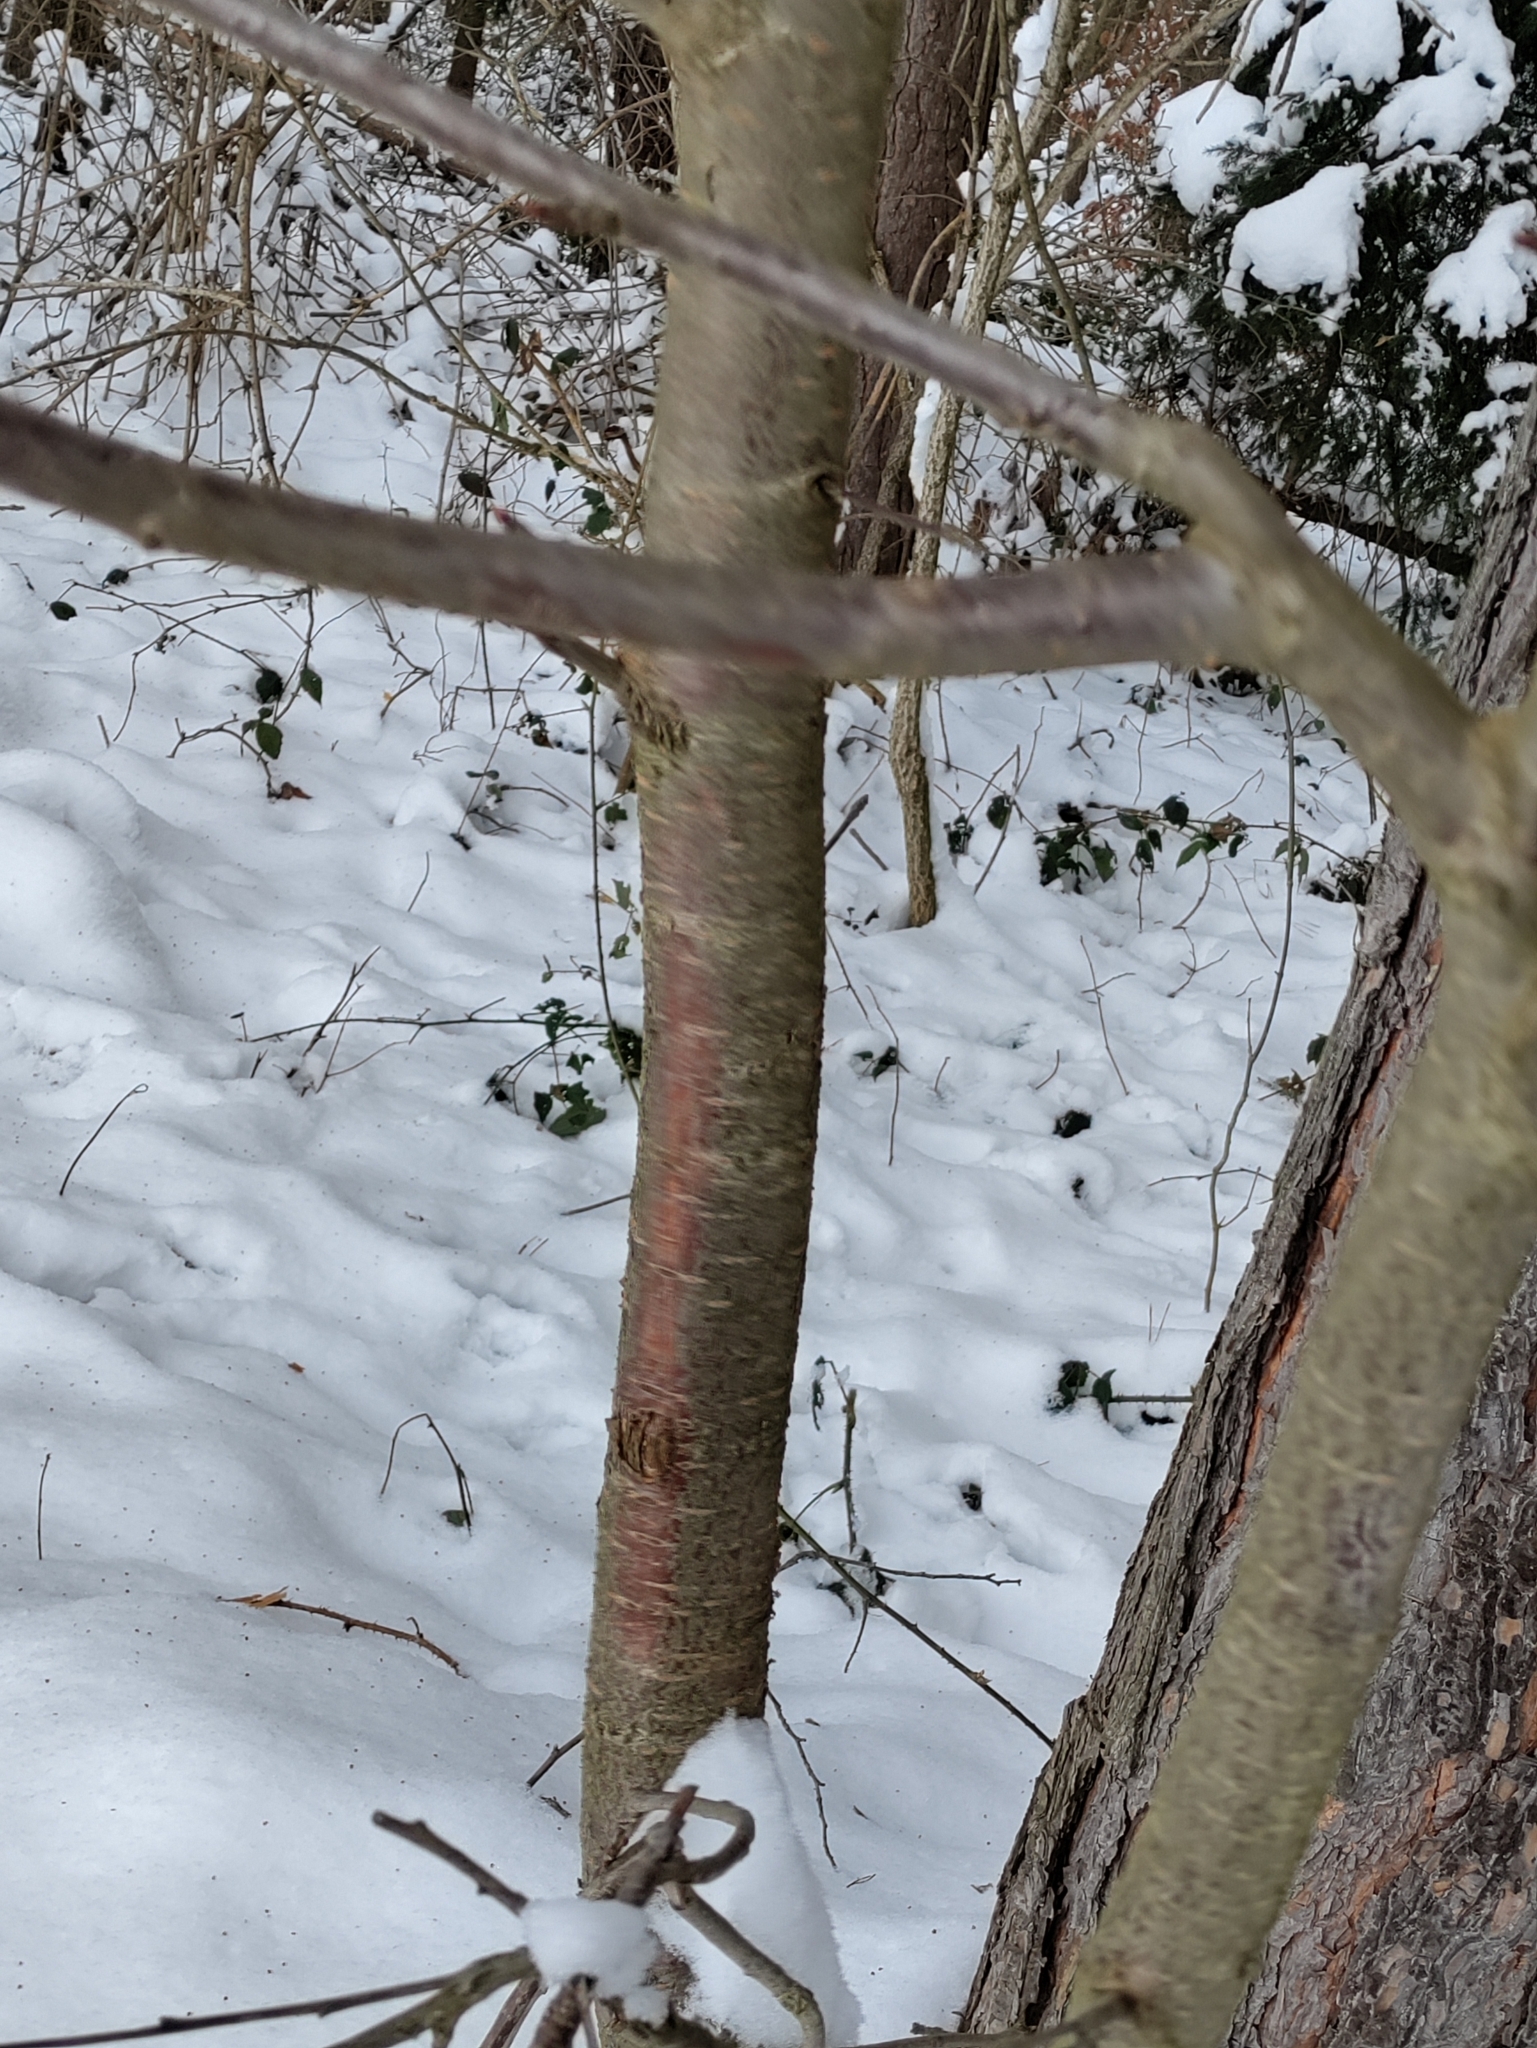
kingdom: Plantae
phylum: Tracheophyta
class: Magnoliopsida
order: Rosales
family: Rosaceae
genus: Prunus
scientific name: Prunus avium
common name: Sweet cherry
